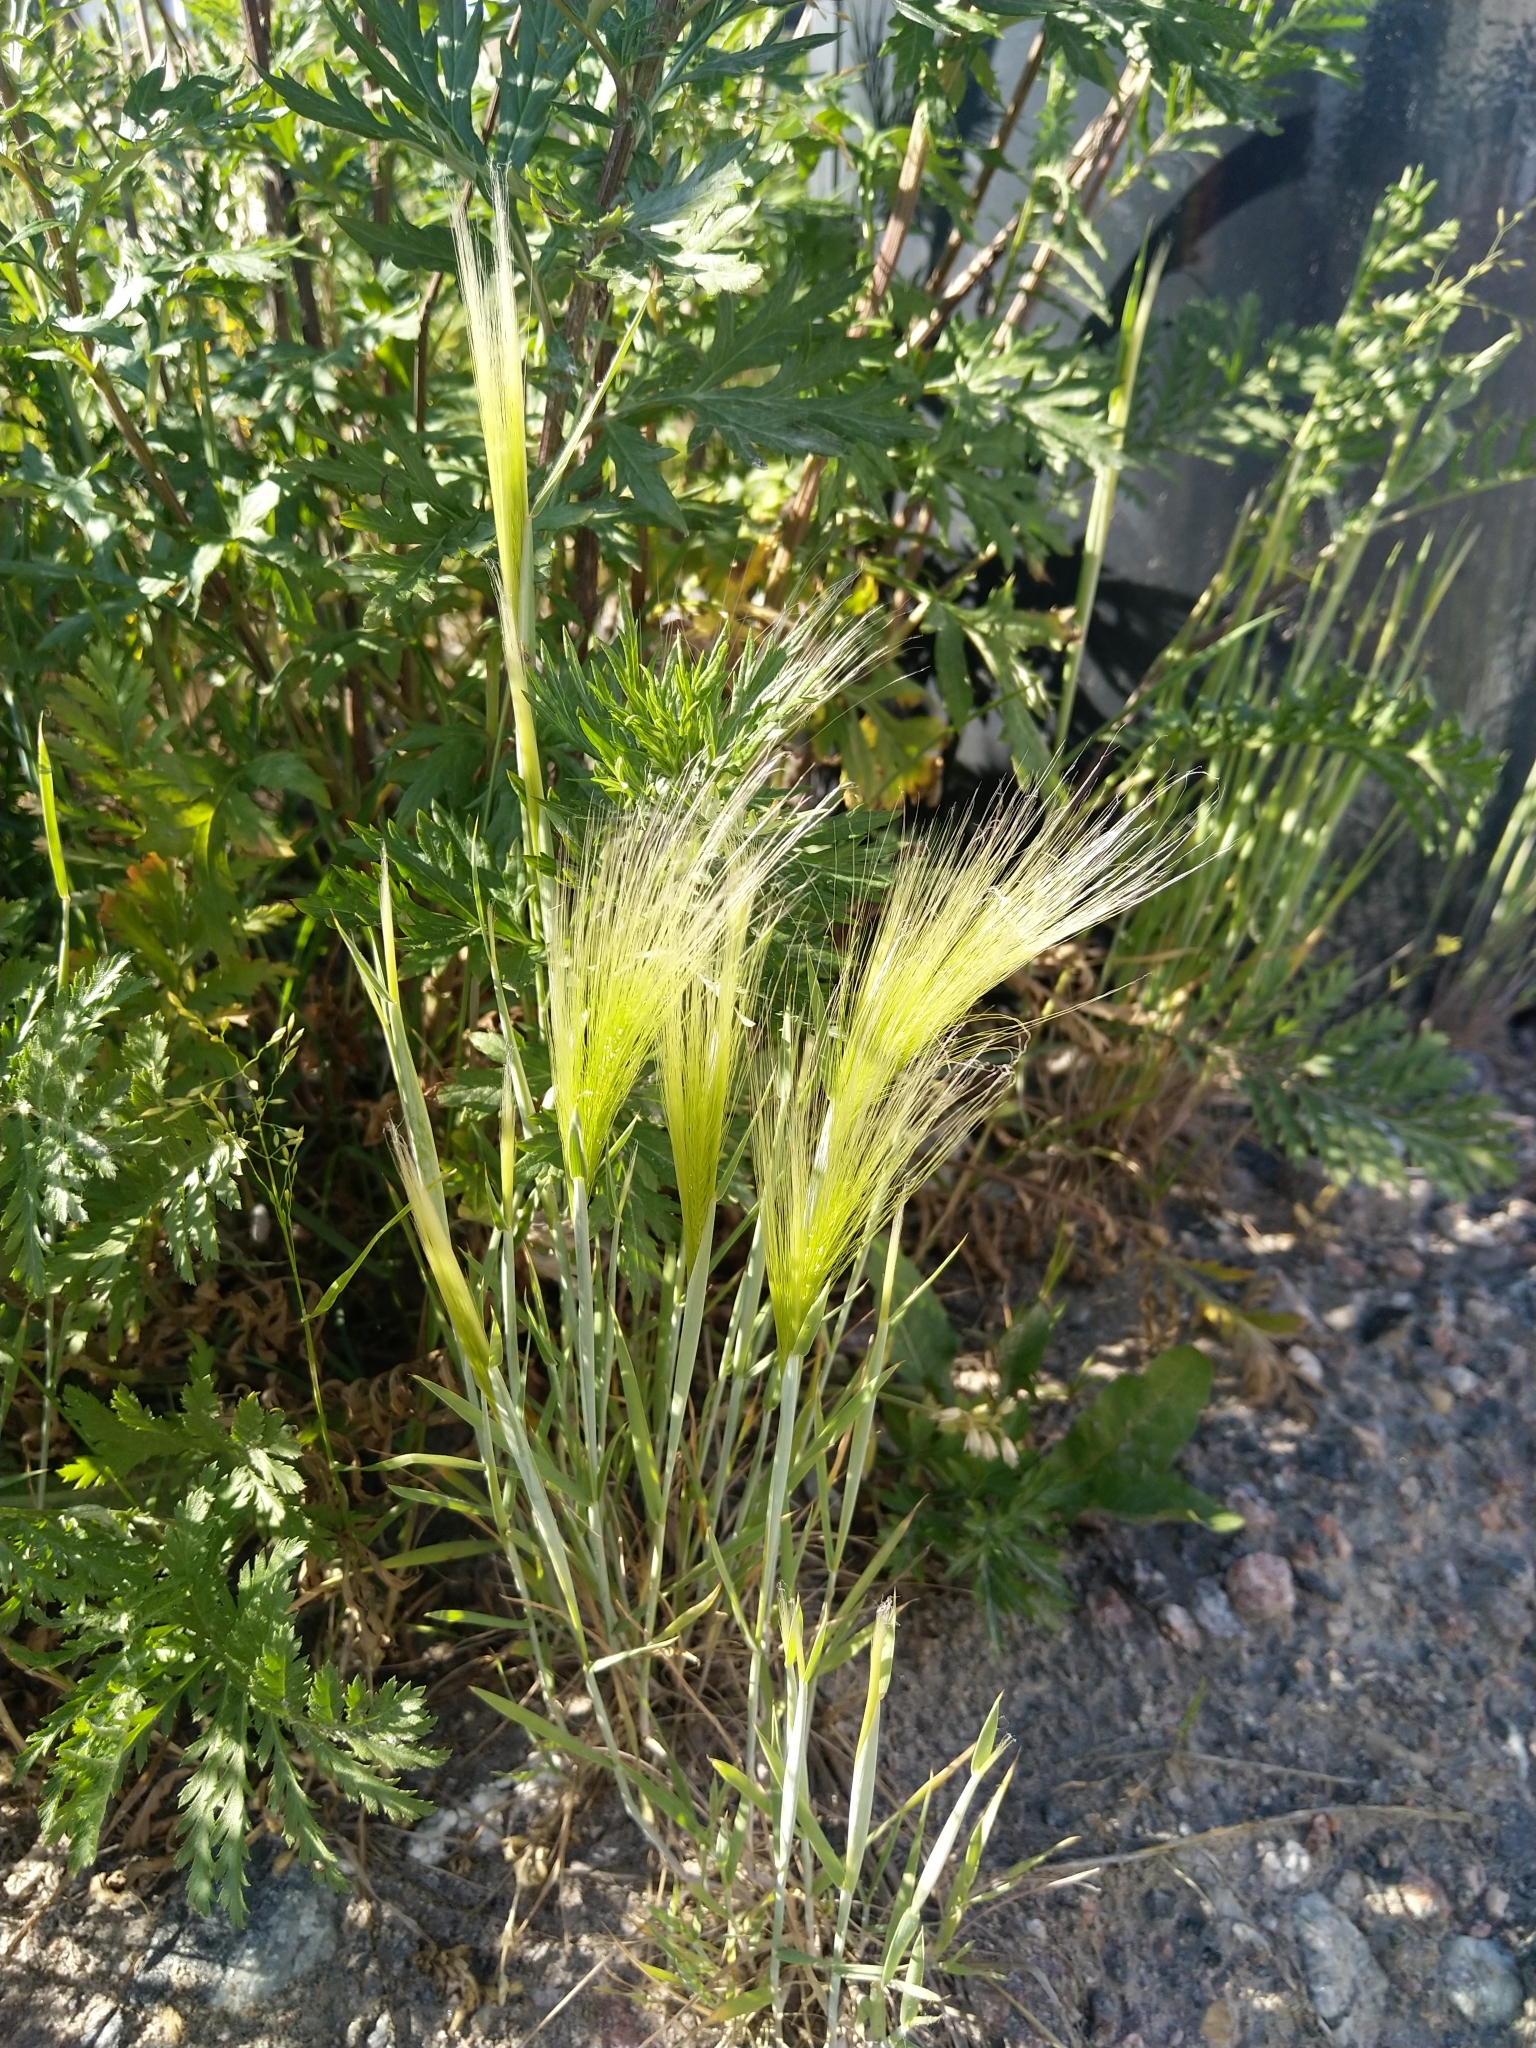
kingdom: Plantae
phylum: Tracheophyta
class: Liliopsida
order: Poales
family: Poaceae
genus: Hordeum
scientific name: Hordeum jubatum
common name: Foxtail barley
